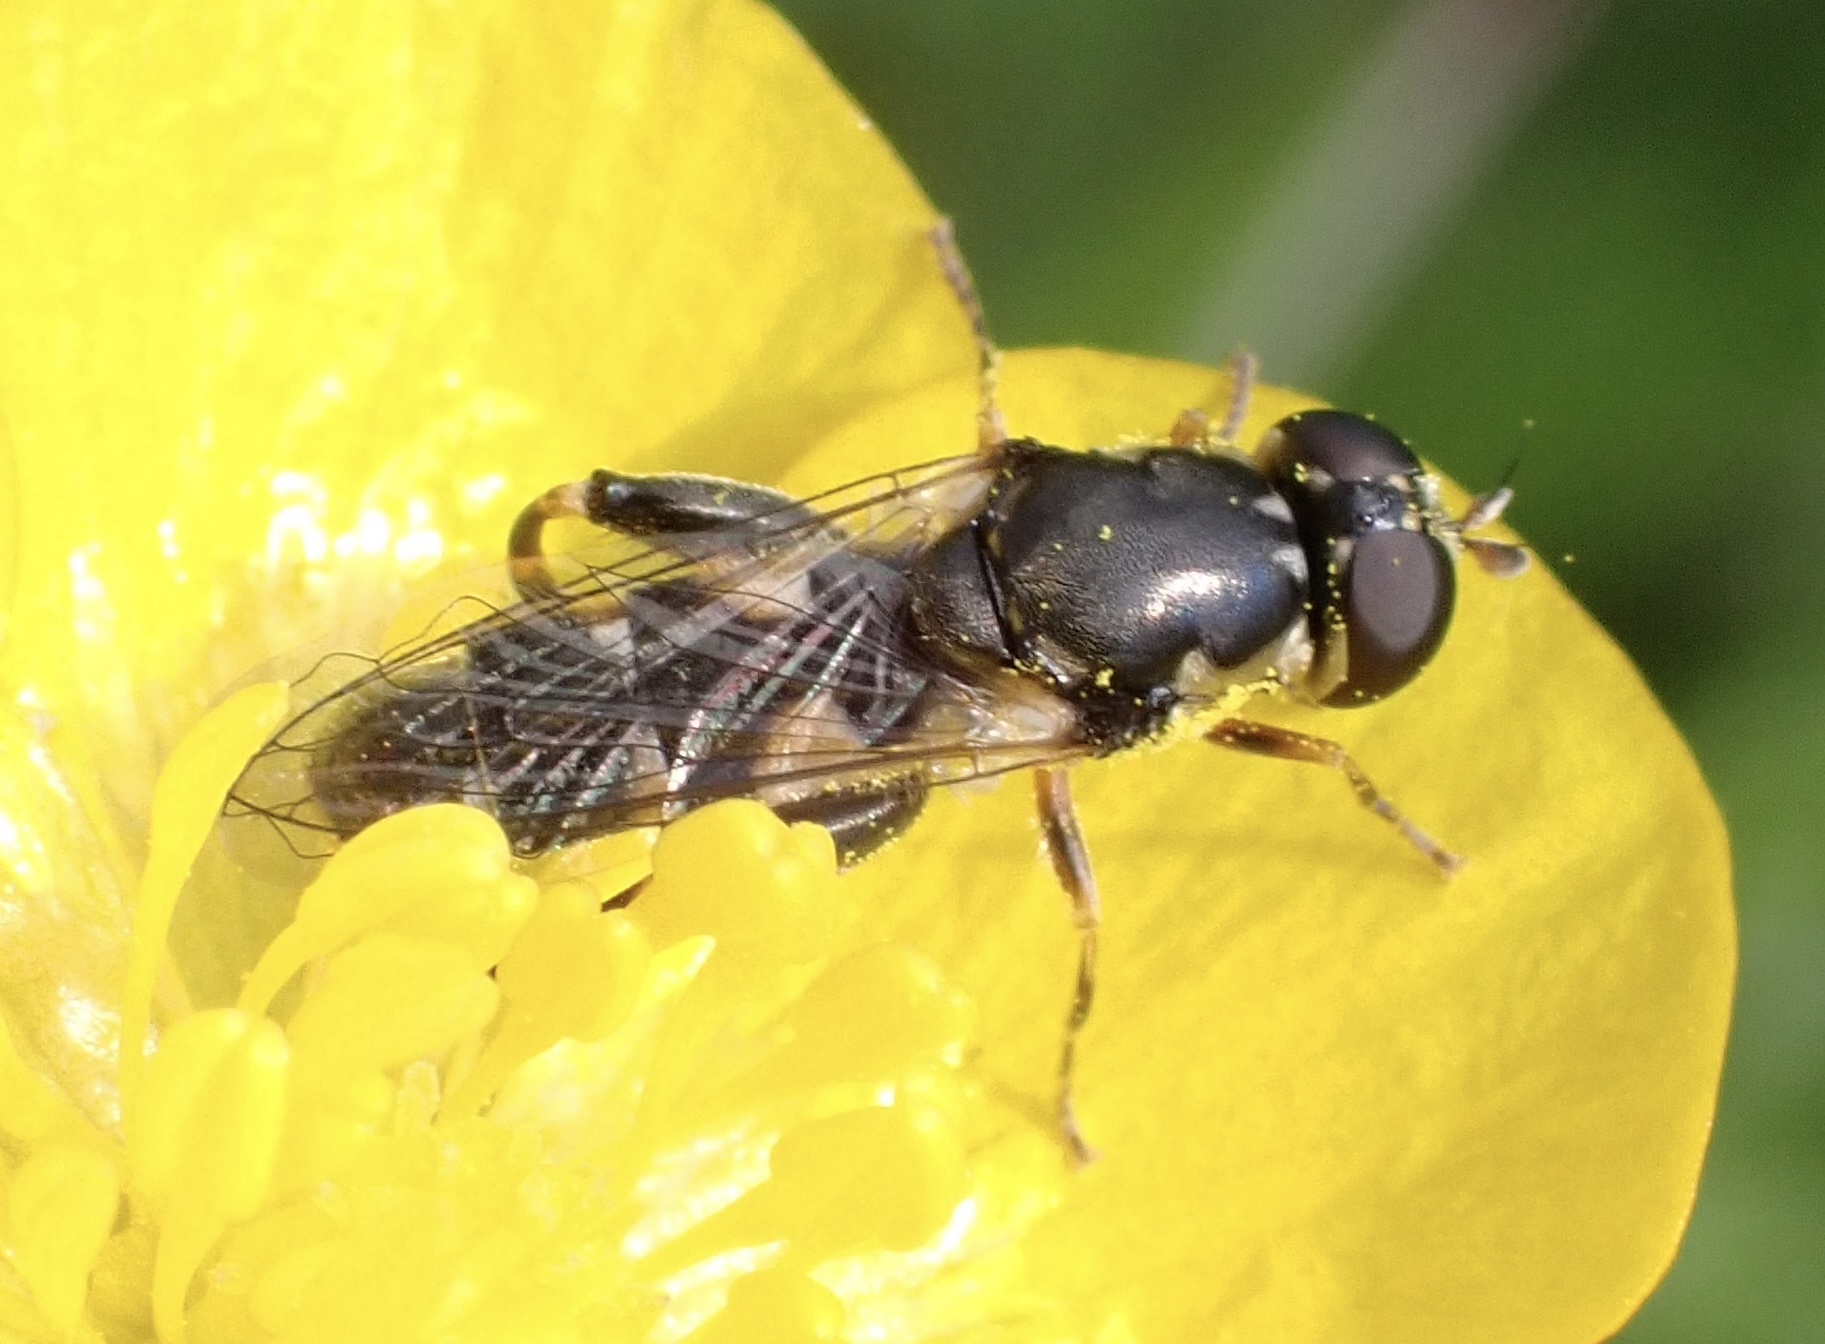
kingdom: Animalia
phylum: Arthropoda
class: Insecta
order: Diptera
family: Syrphidae
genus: Syritta
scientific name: Syritta pipiens
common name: Hover fly
